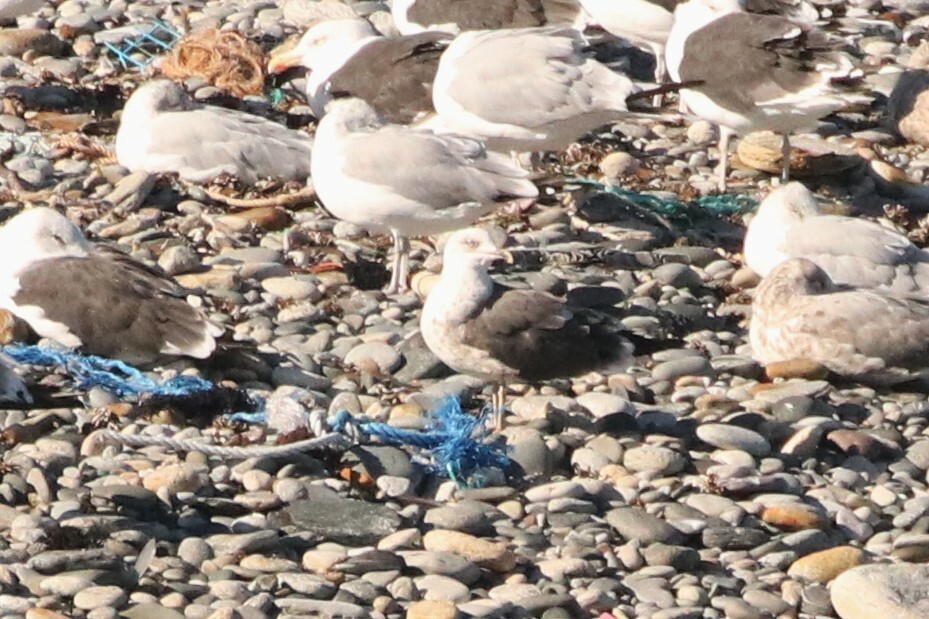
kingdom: Animalia
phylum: Chordata
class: Aves
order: Charadriiformes
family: Laridae
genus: Larus
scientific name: Larus fuscus
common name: Lesser black-backed gull
